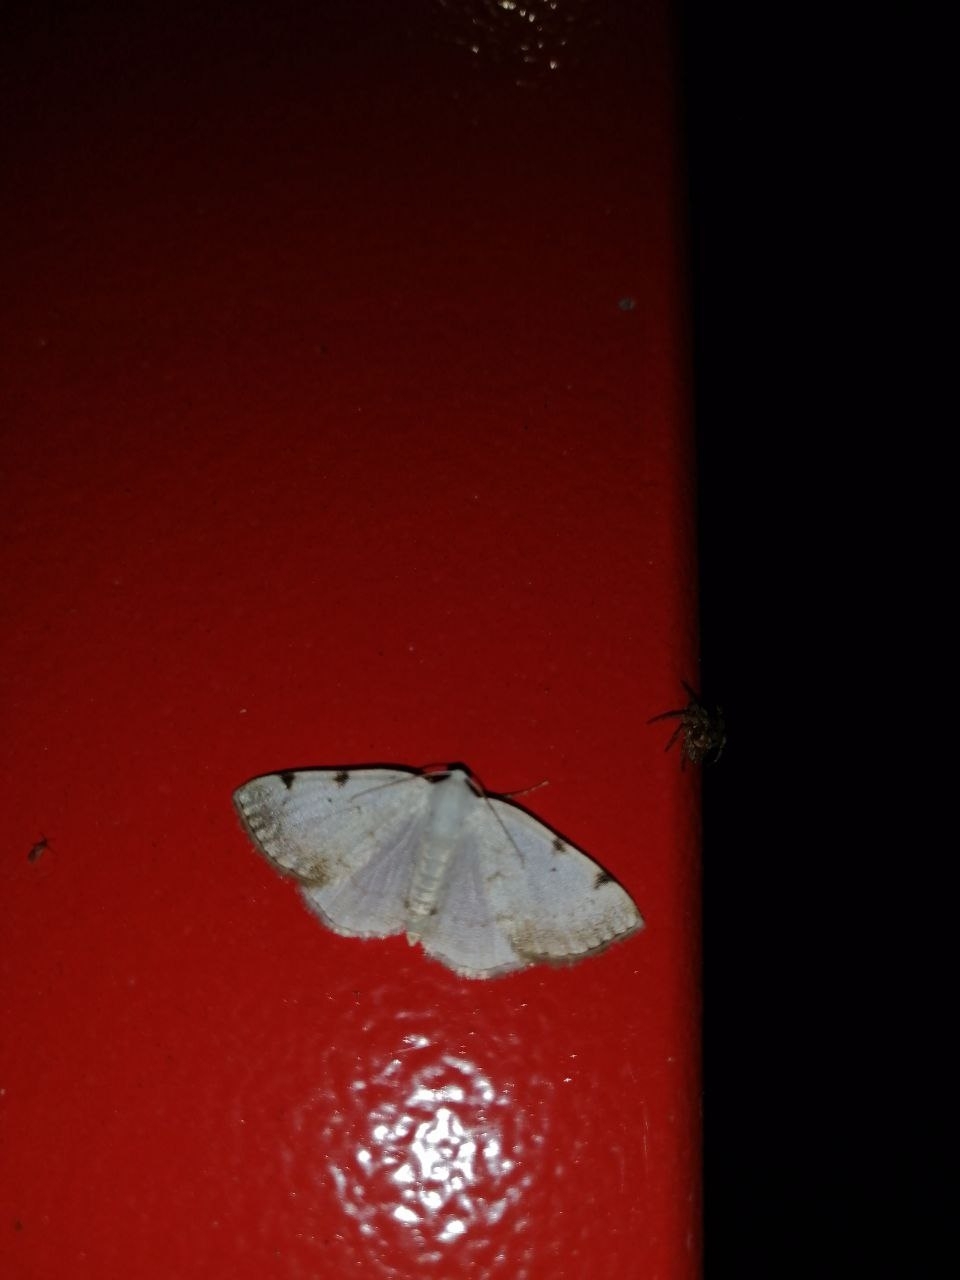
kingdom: Animalia
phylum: Arthropoda
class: Insecta
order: Lepidoptera
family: Geometridae
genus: Lomographa
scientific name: Lomographa bimaculata
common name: White-pinion spotted
